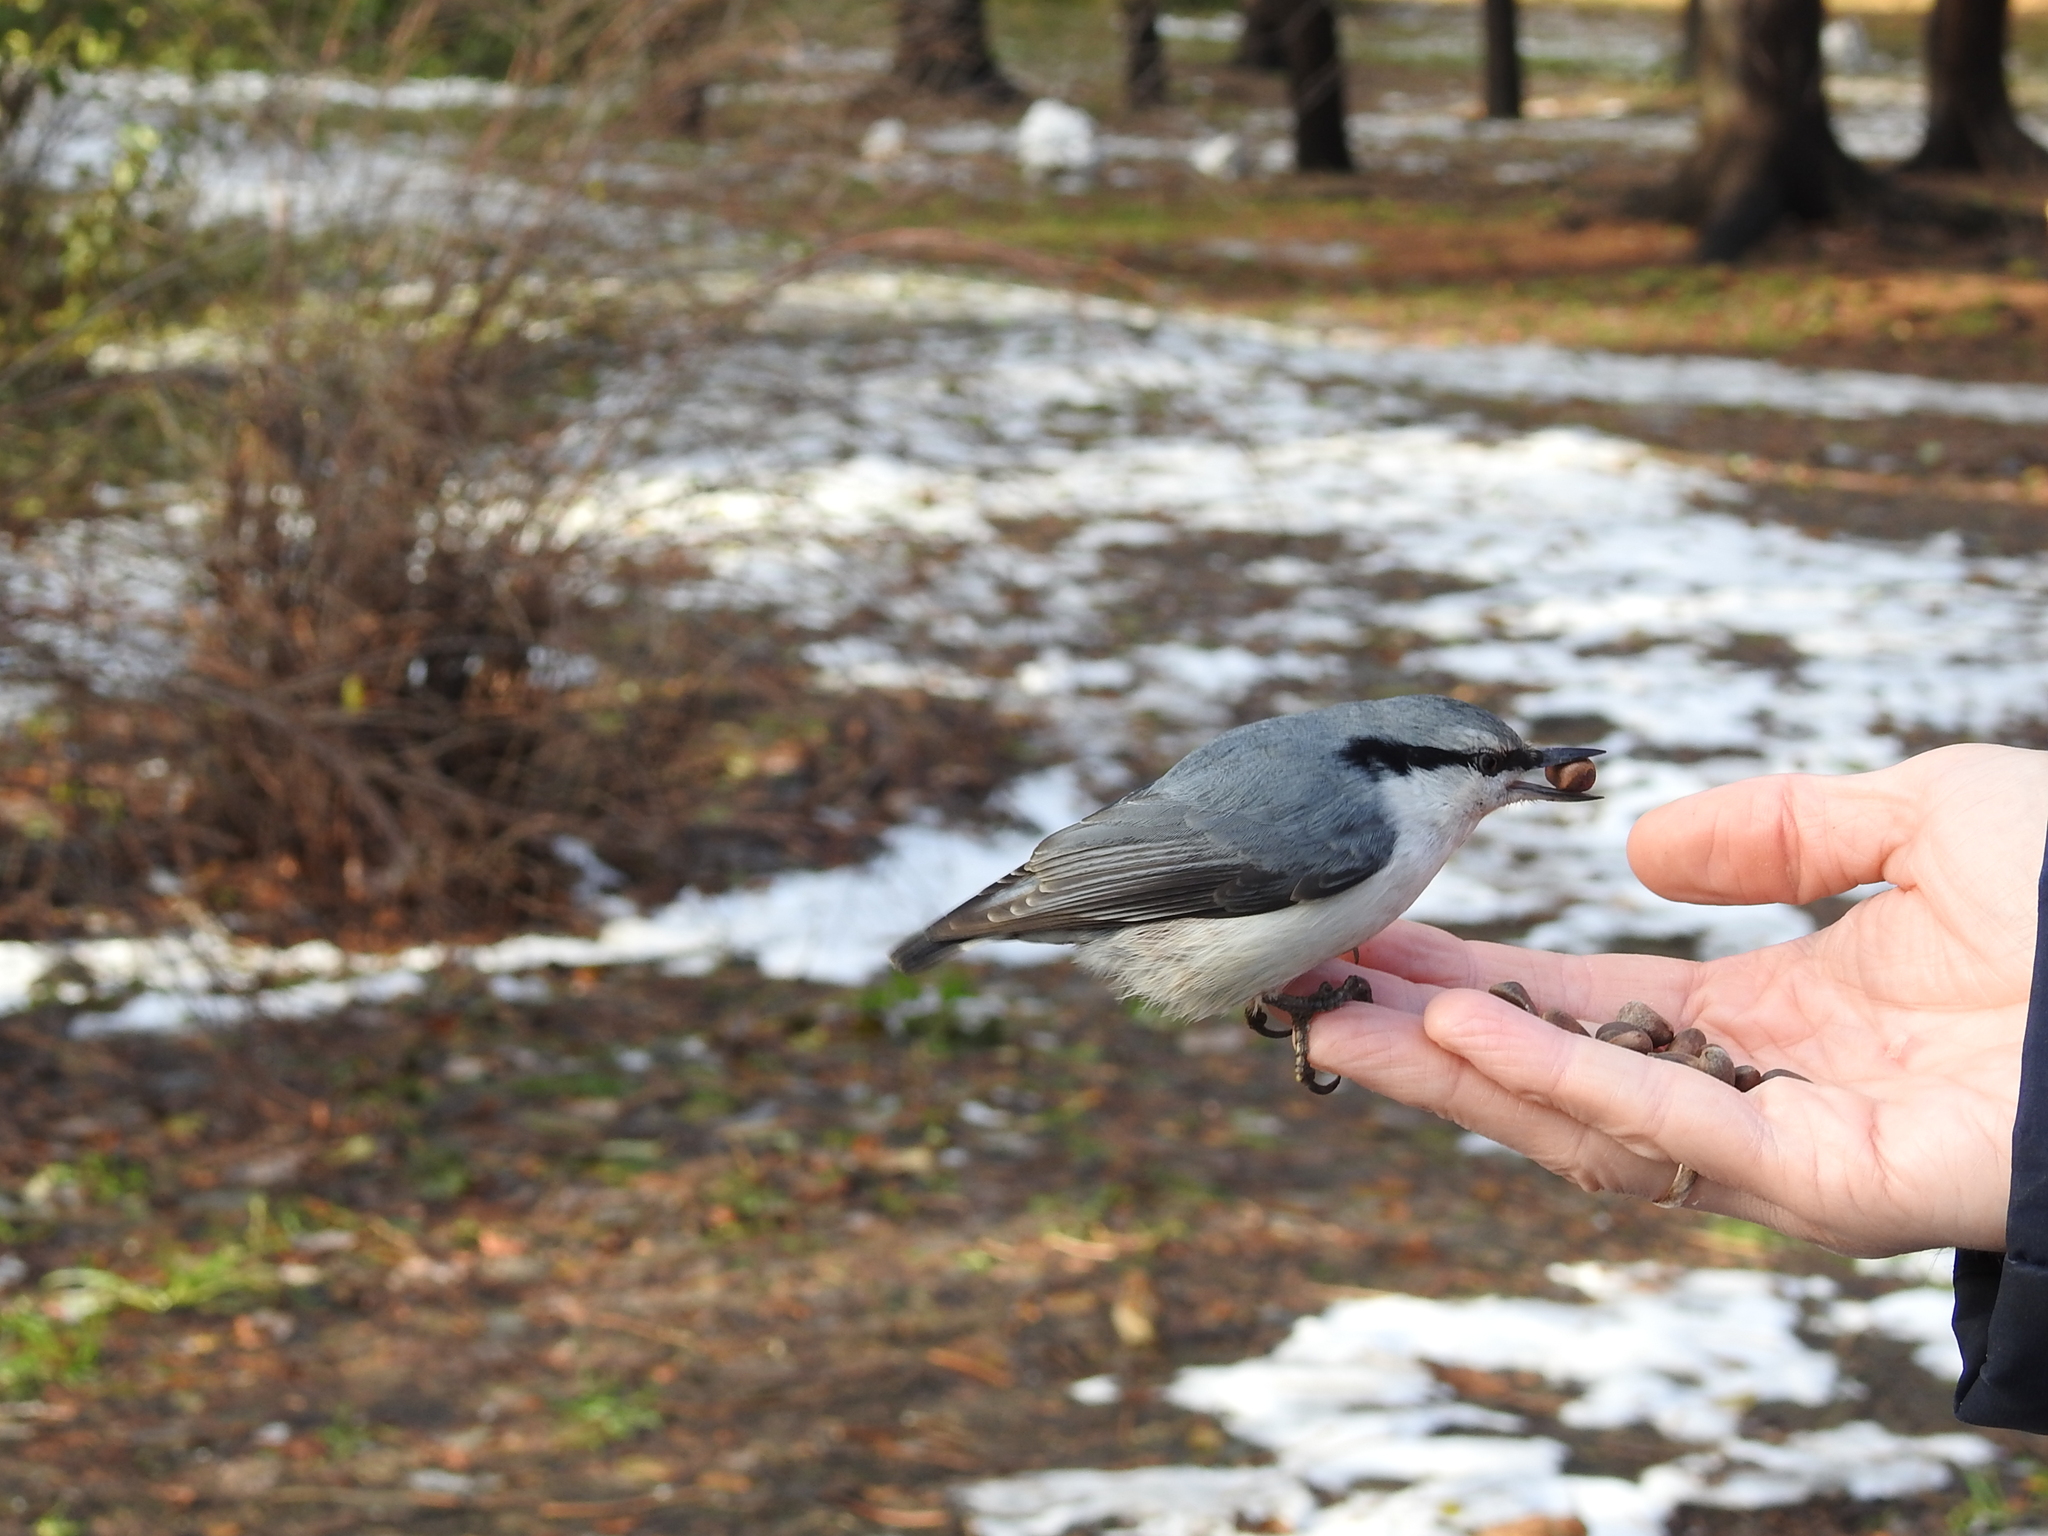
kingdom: Animalia
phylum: Chordata
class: Aves
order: Passeriformes
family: Sittidae
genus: Sitta
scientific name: Sitta europaea
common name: Eurasian nuthatch
